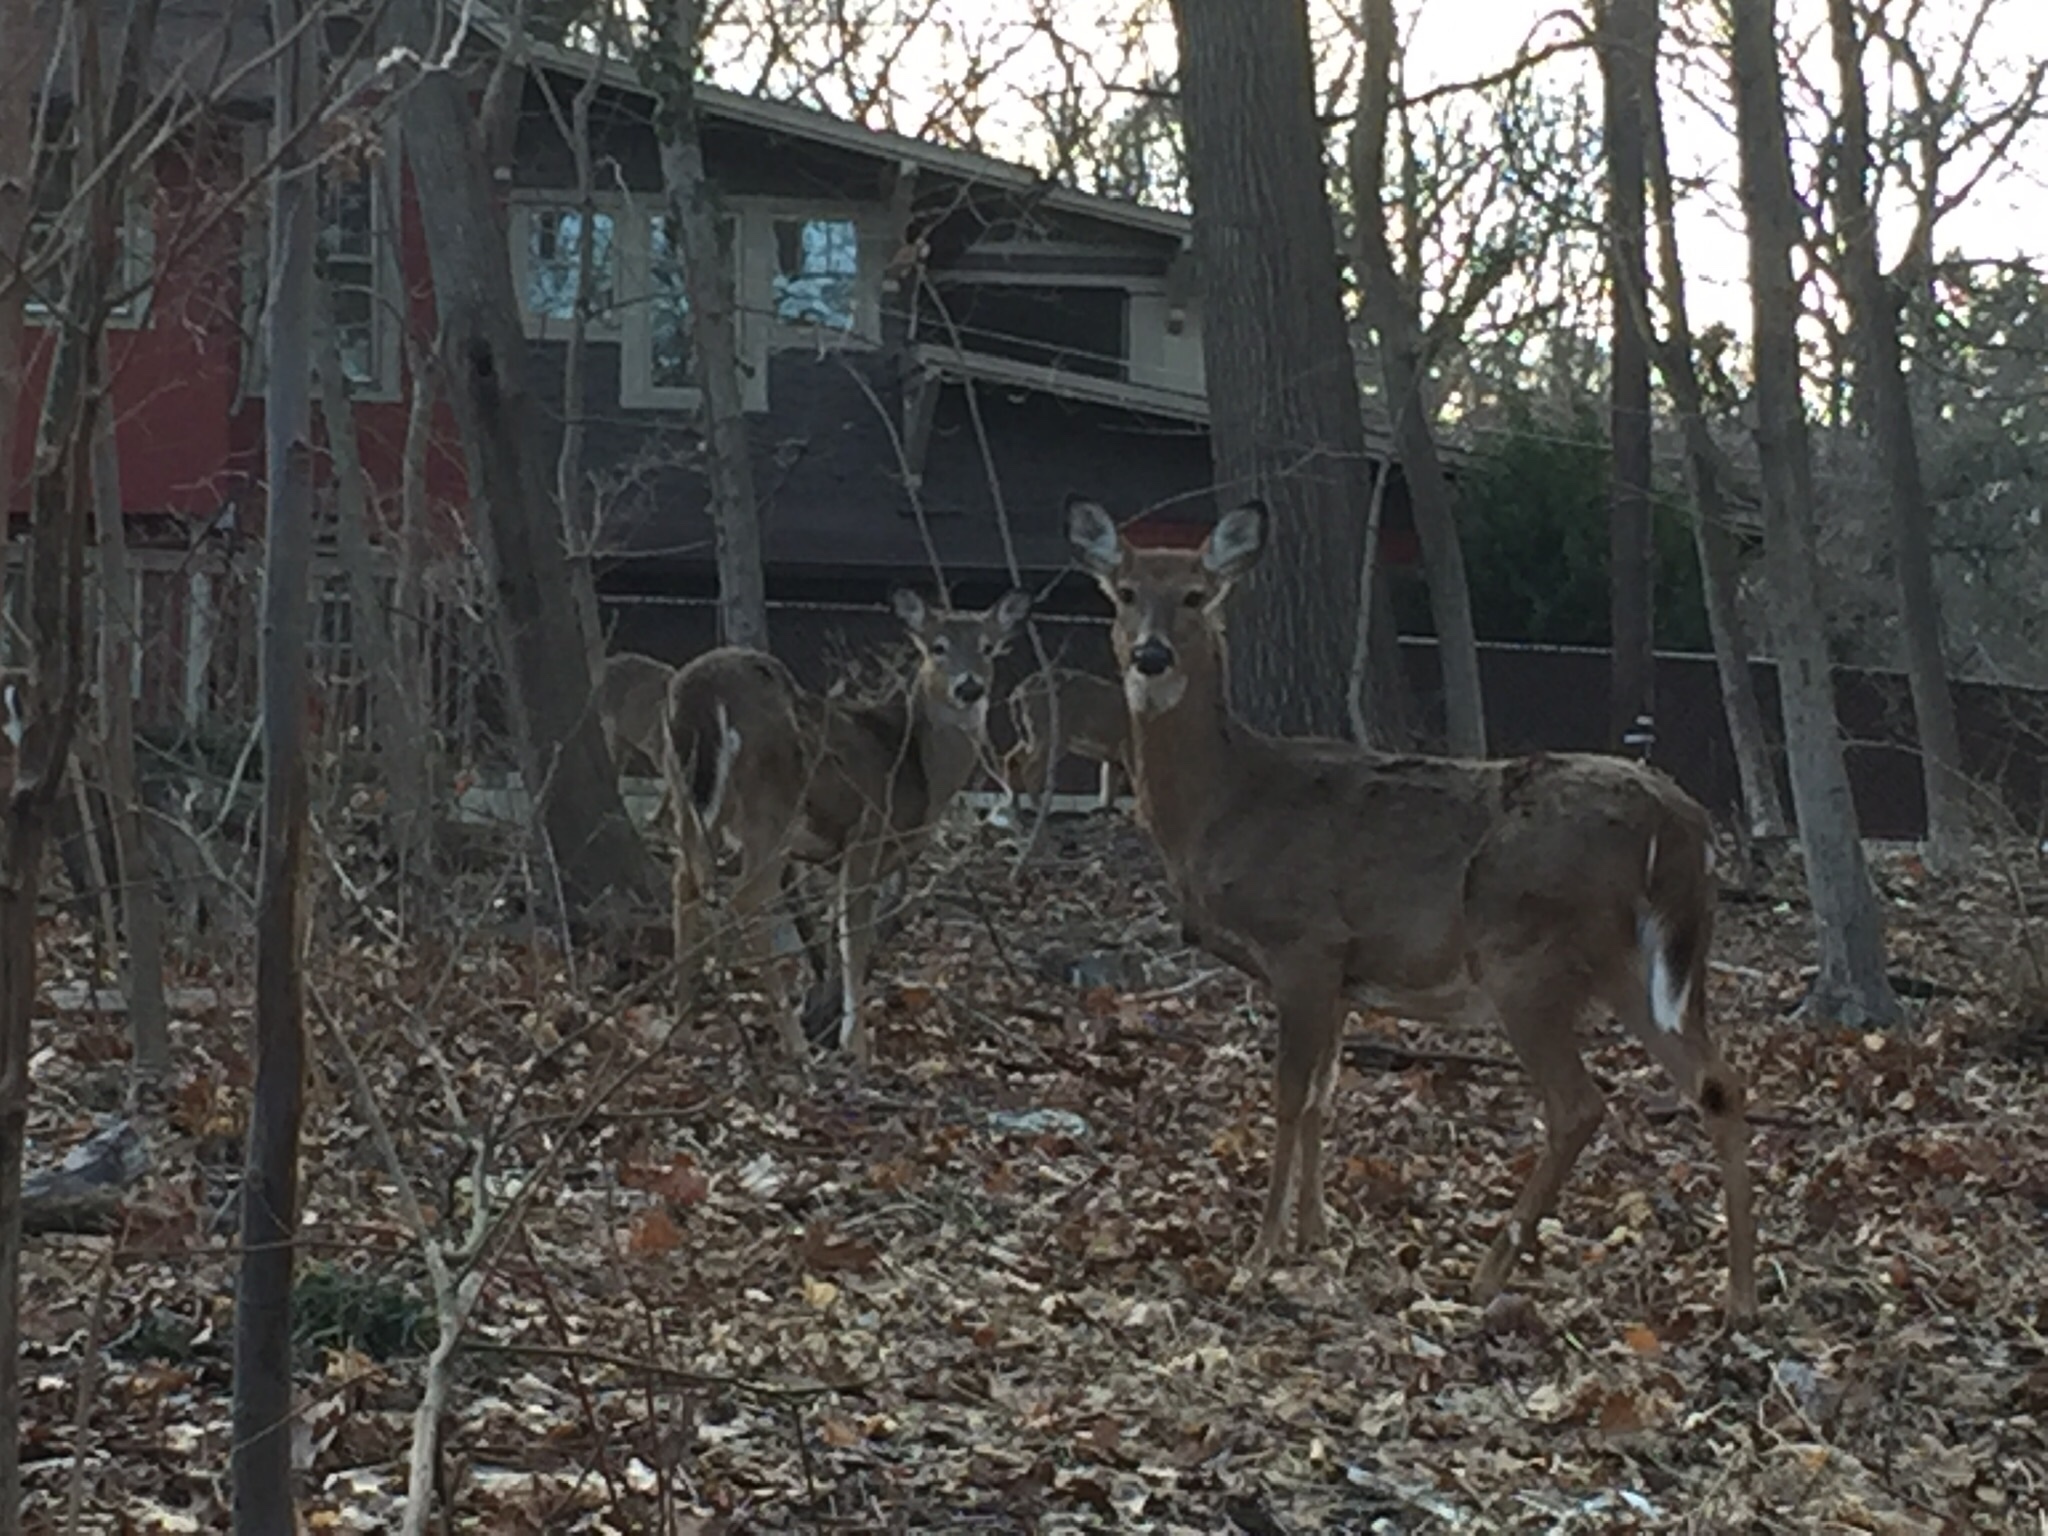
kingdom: Animalia
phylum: Chordata
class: Mammalia
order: Artiodactyla
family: Cervidae
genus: Odocoileus
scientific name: Odocoileus virginianus
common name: White-tailed deer
